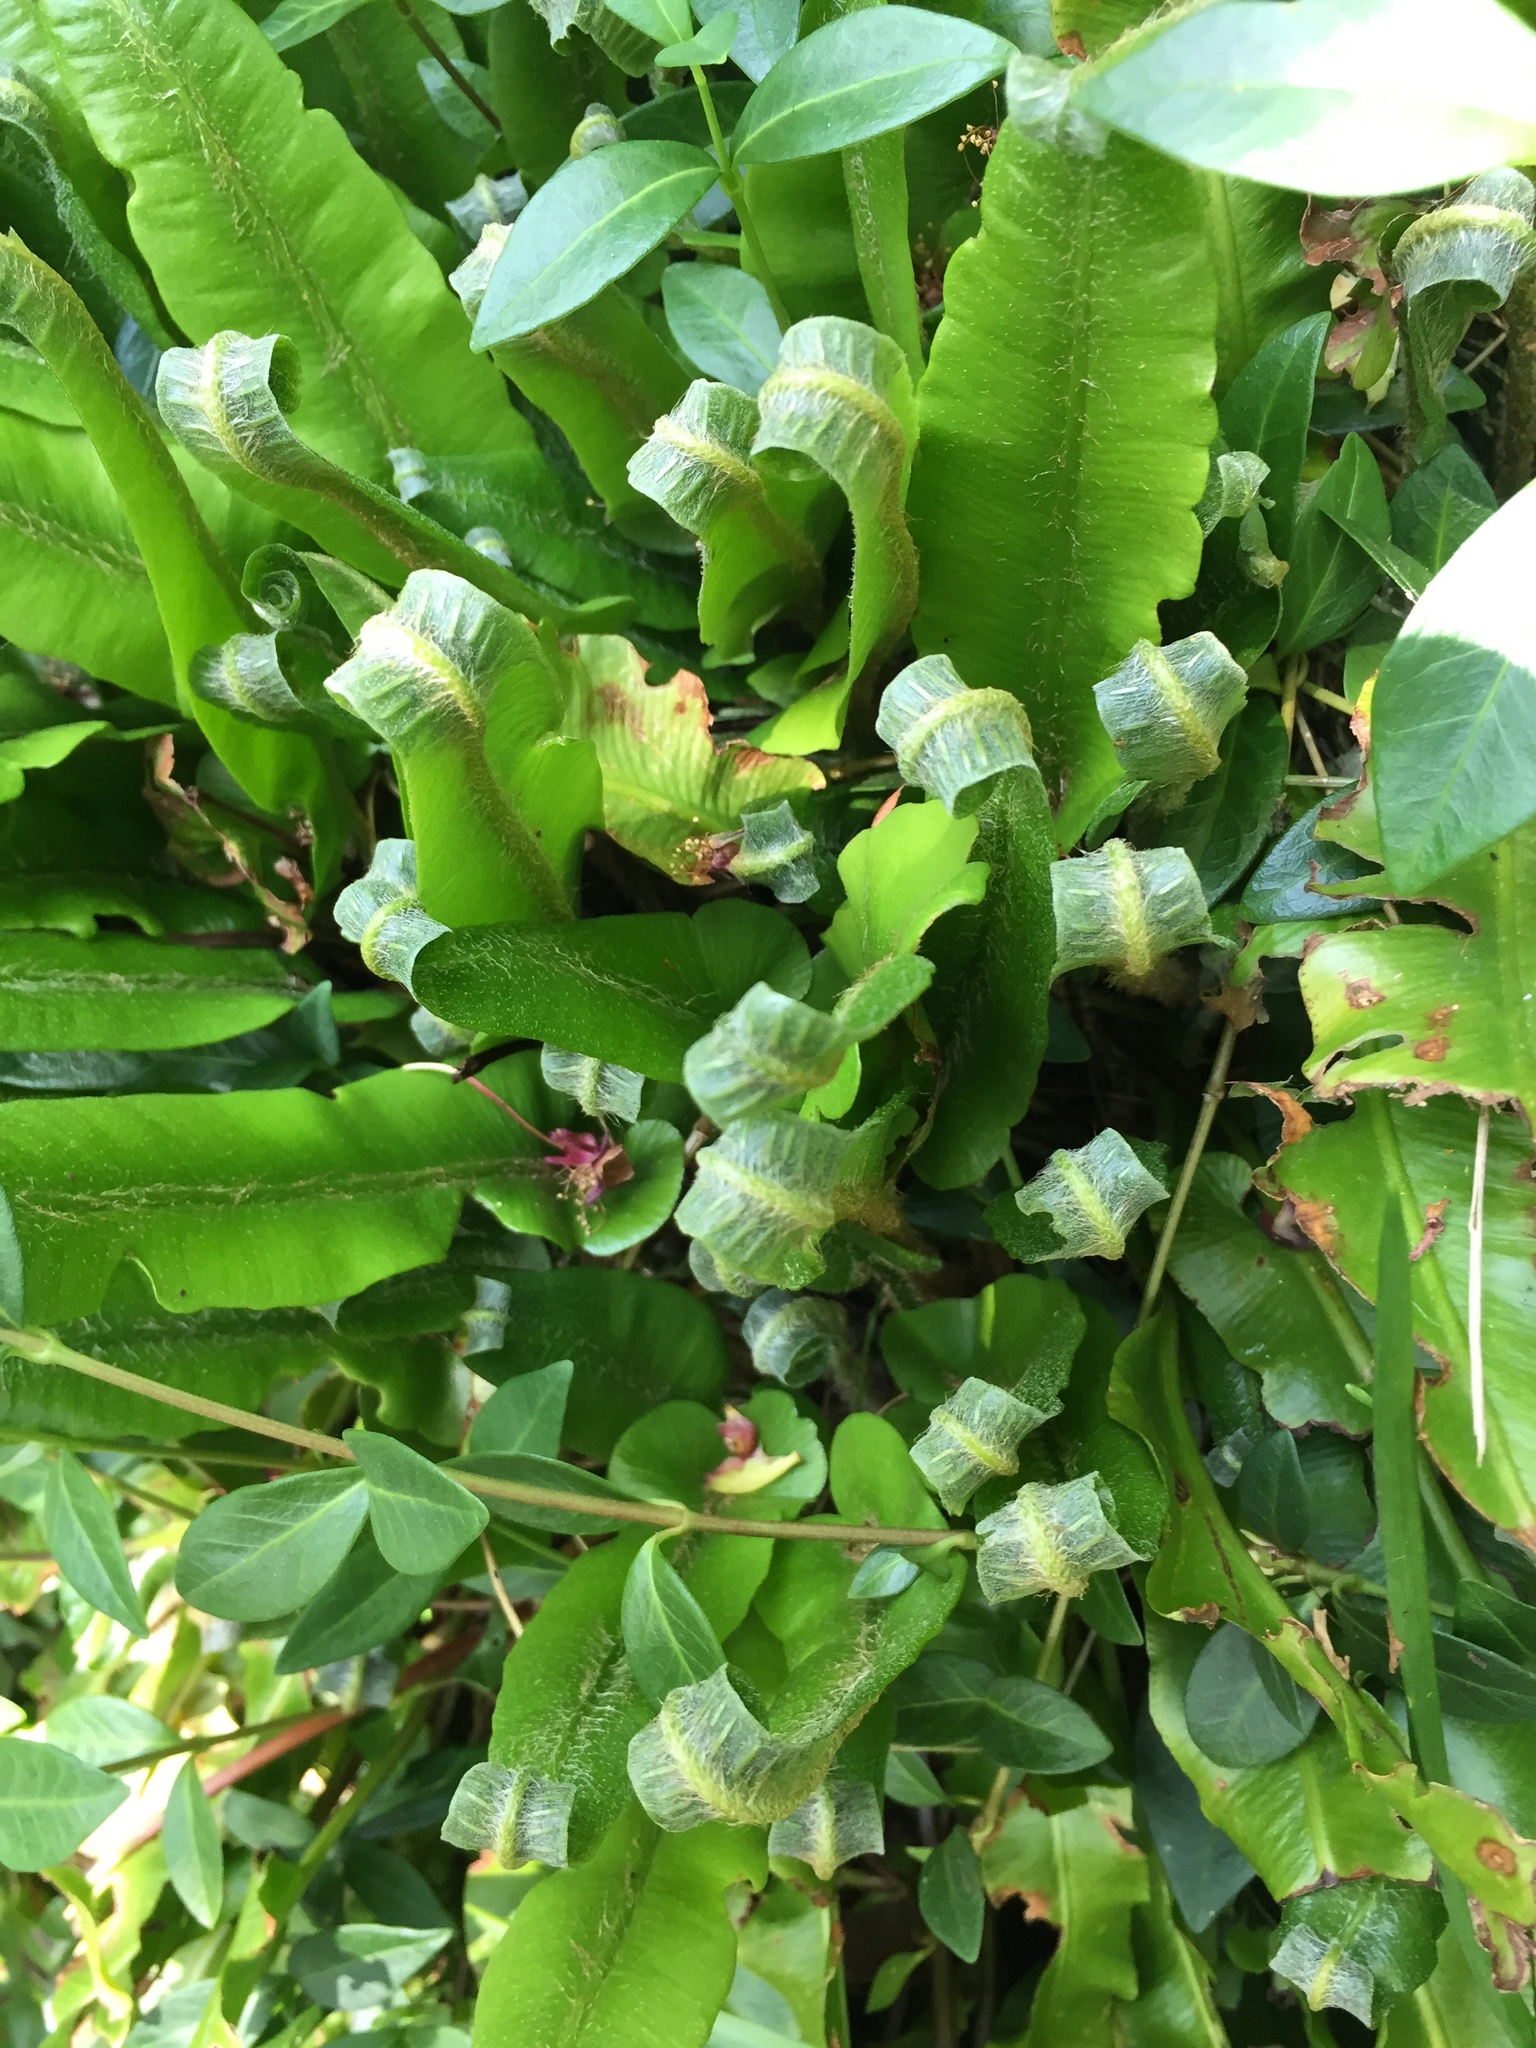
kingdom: Plantae
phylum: Tracheophyta
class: Polypodiopsida
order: Polypodiales
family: Aspleniaceae
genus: Asplenium
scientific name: Asplenium scolopendrium
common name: Hart's-tongue fern
